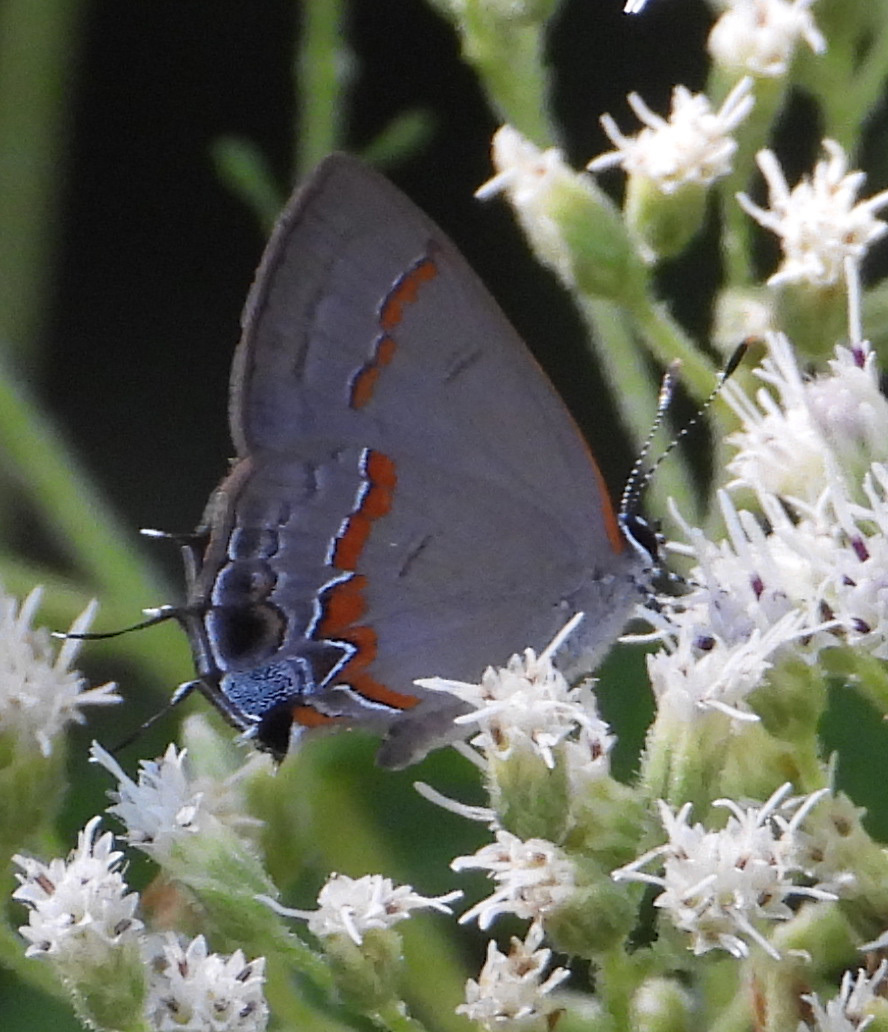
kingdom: Animalia
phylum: Arthropoda
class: Insecta
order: Lepidoptera
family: Lycaenidae
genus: Calycopis
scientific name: Calycopis cecrops
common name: Red-banded hairstreak
